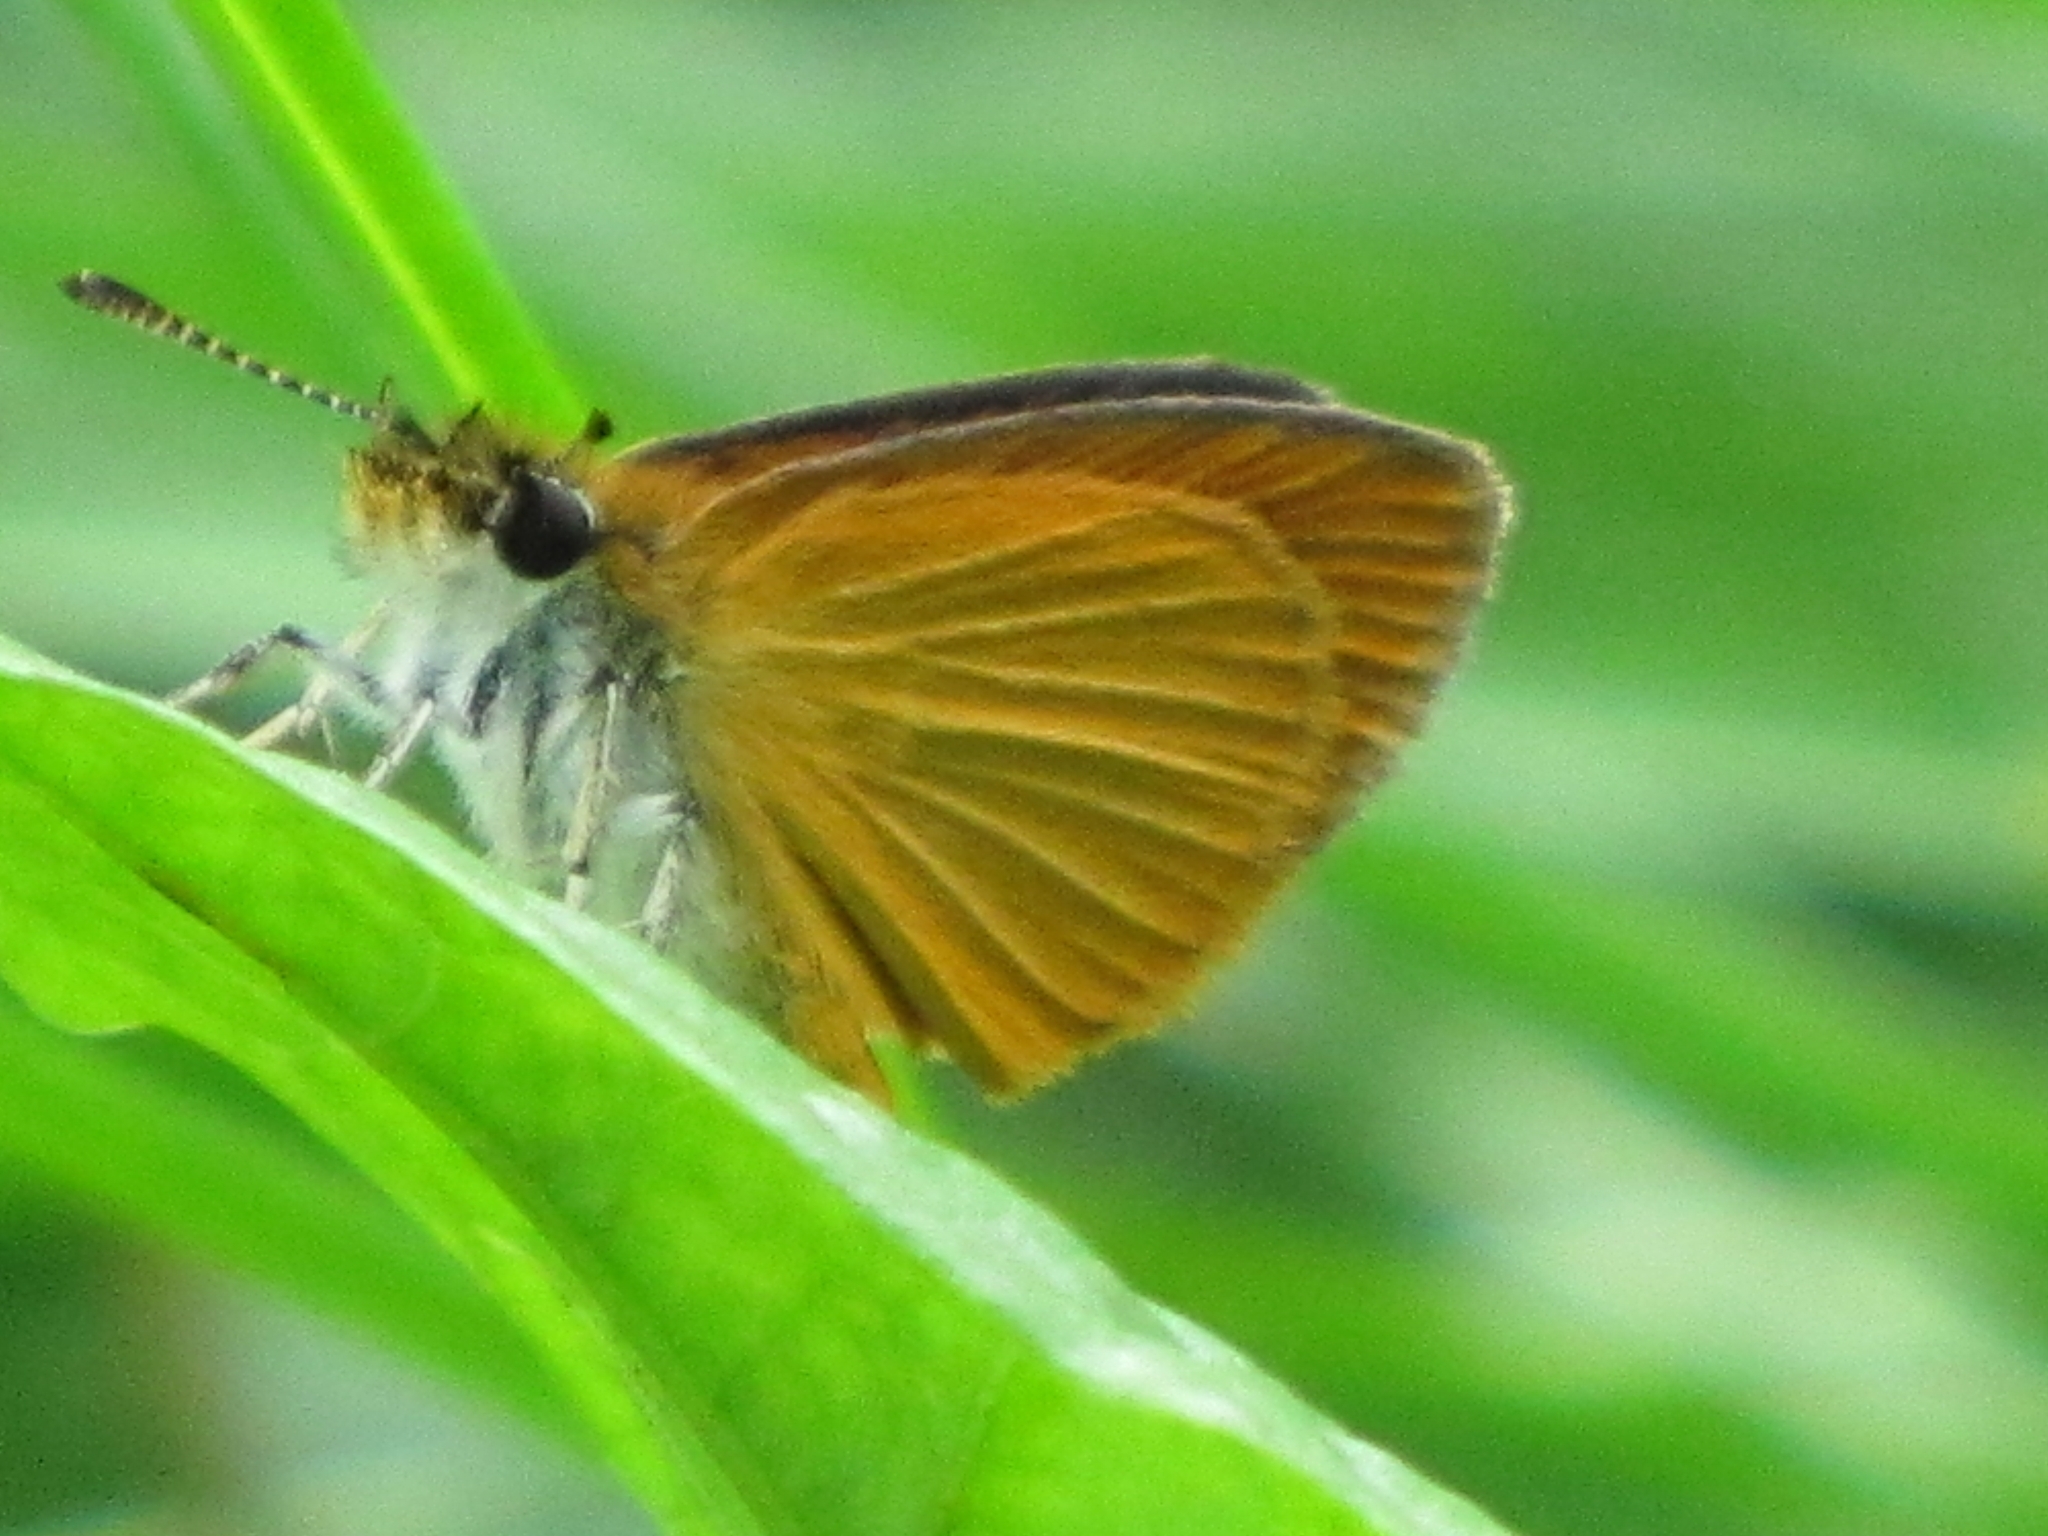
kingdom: Animalia
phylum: Arthropoda
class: Insecta
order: Lepidoptera
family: Hesperiidae
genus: Ancyloxypha
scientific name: Ancyloxypha numitor
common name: Least skipper
